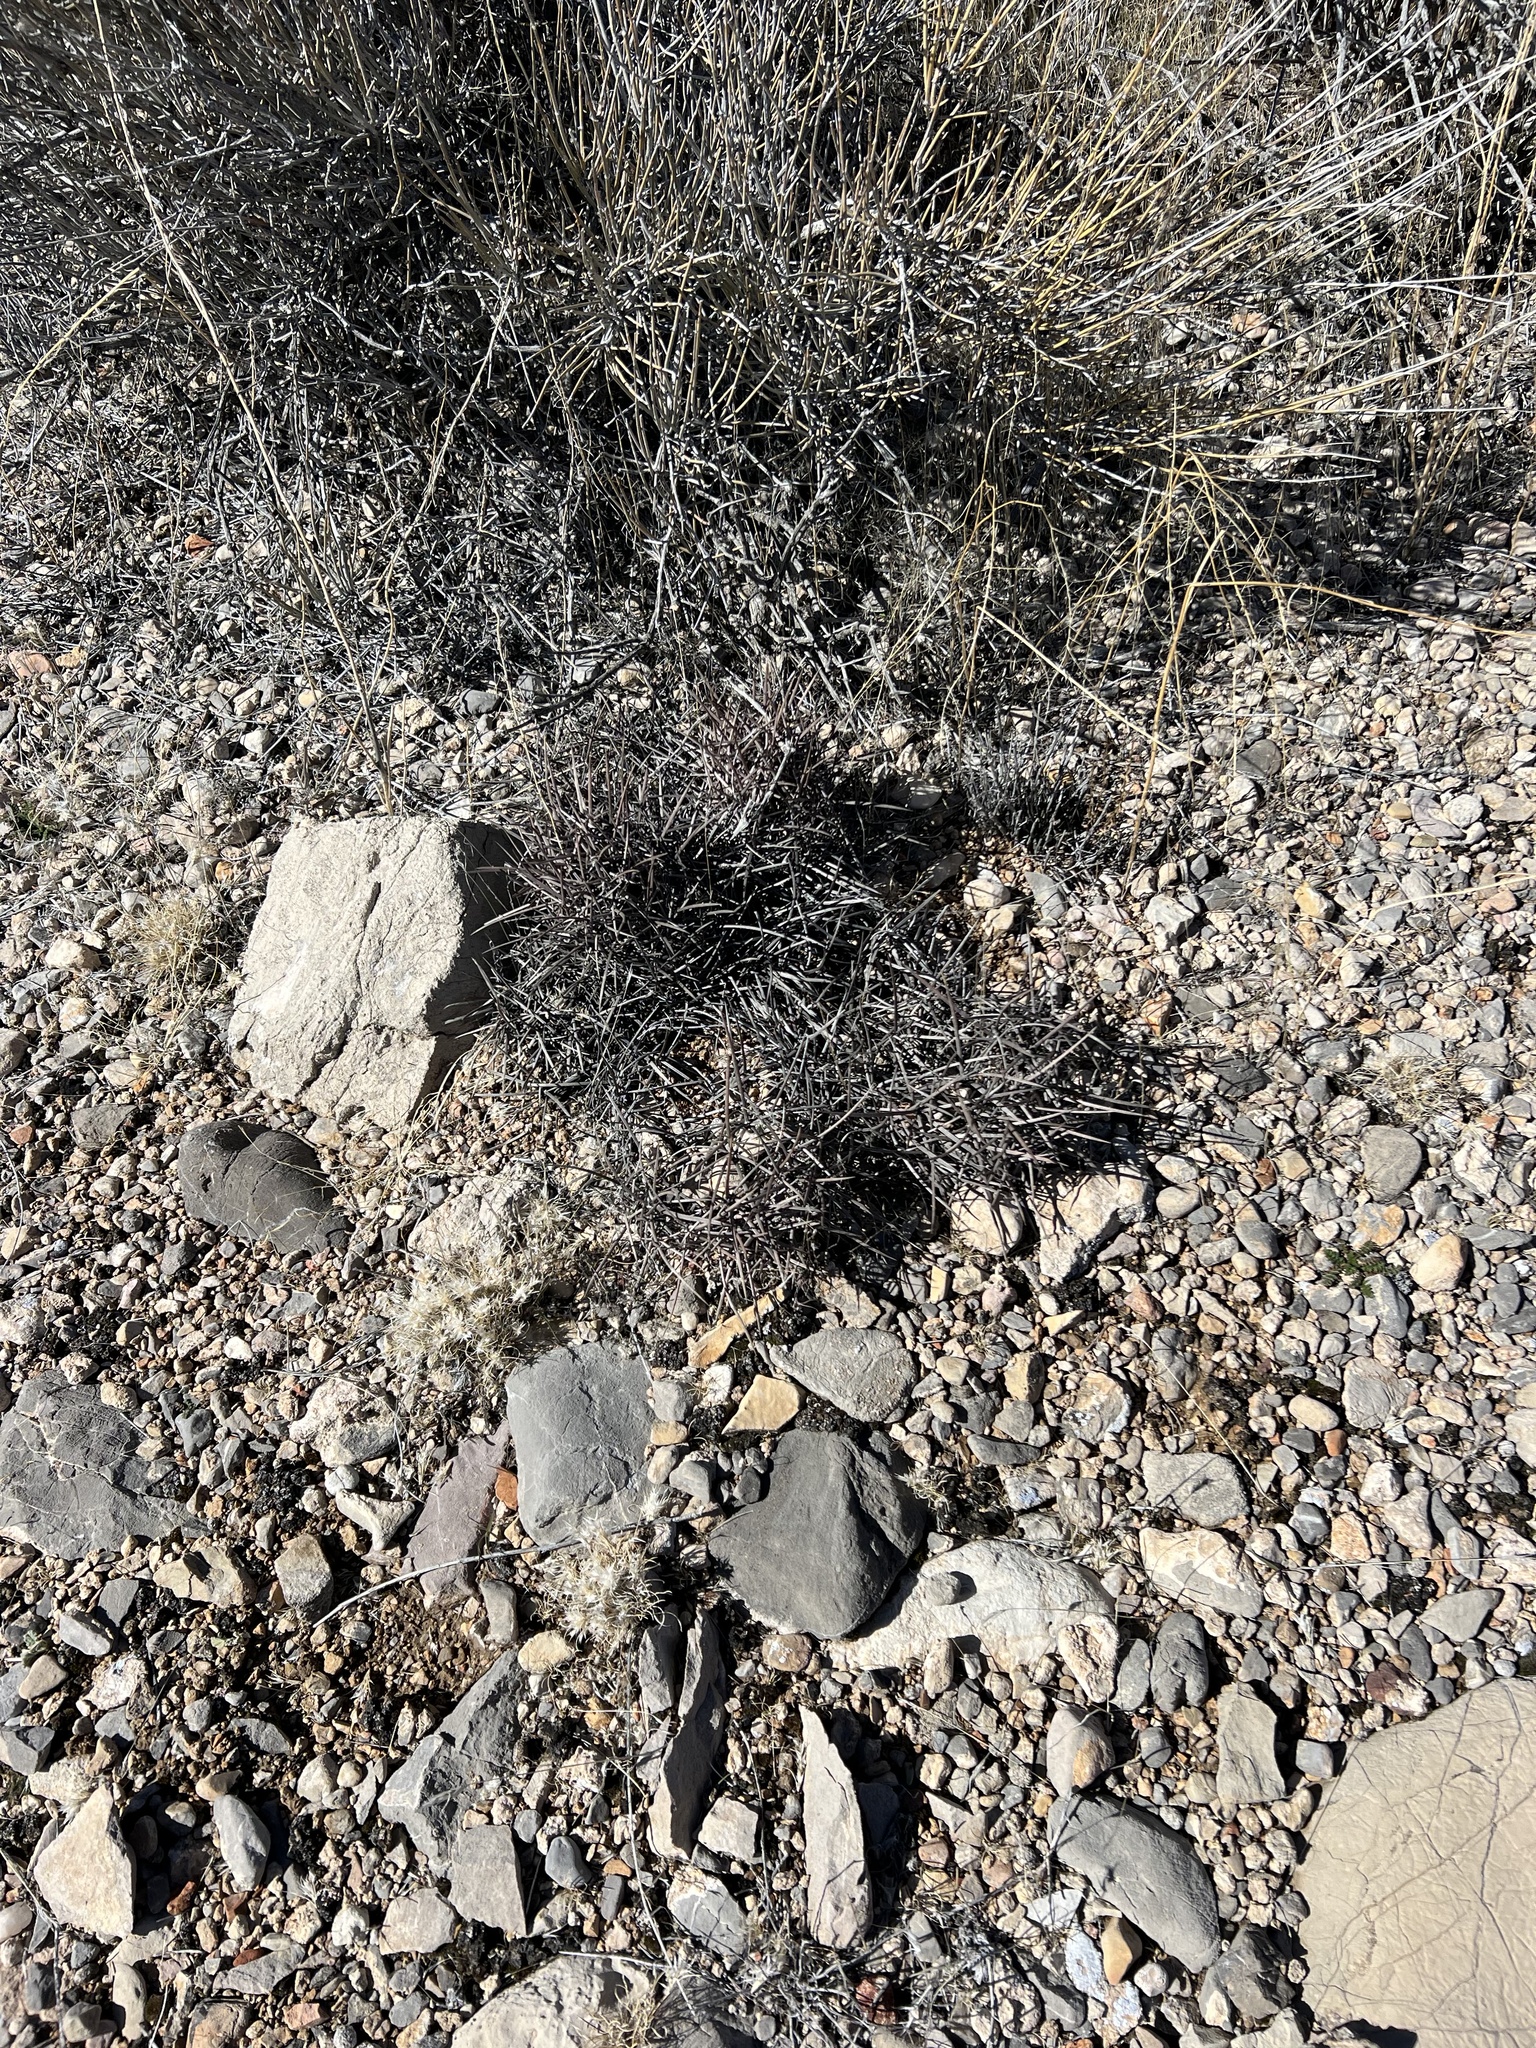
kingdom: Plantae
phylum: Tracheophyta
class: Magnoliopsida
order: Caryophyllales
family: Cactaceae
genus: Echinocactus
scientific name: Echinocactus polycephalus
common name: Cottontop cactus
